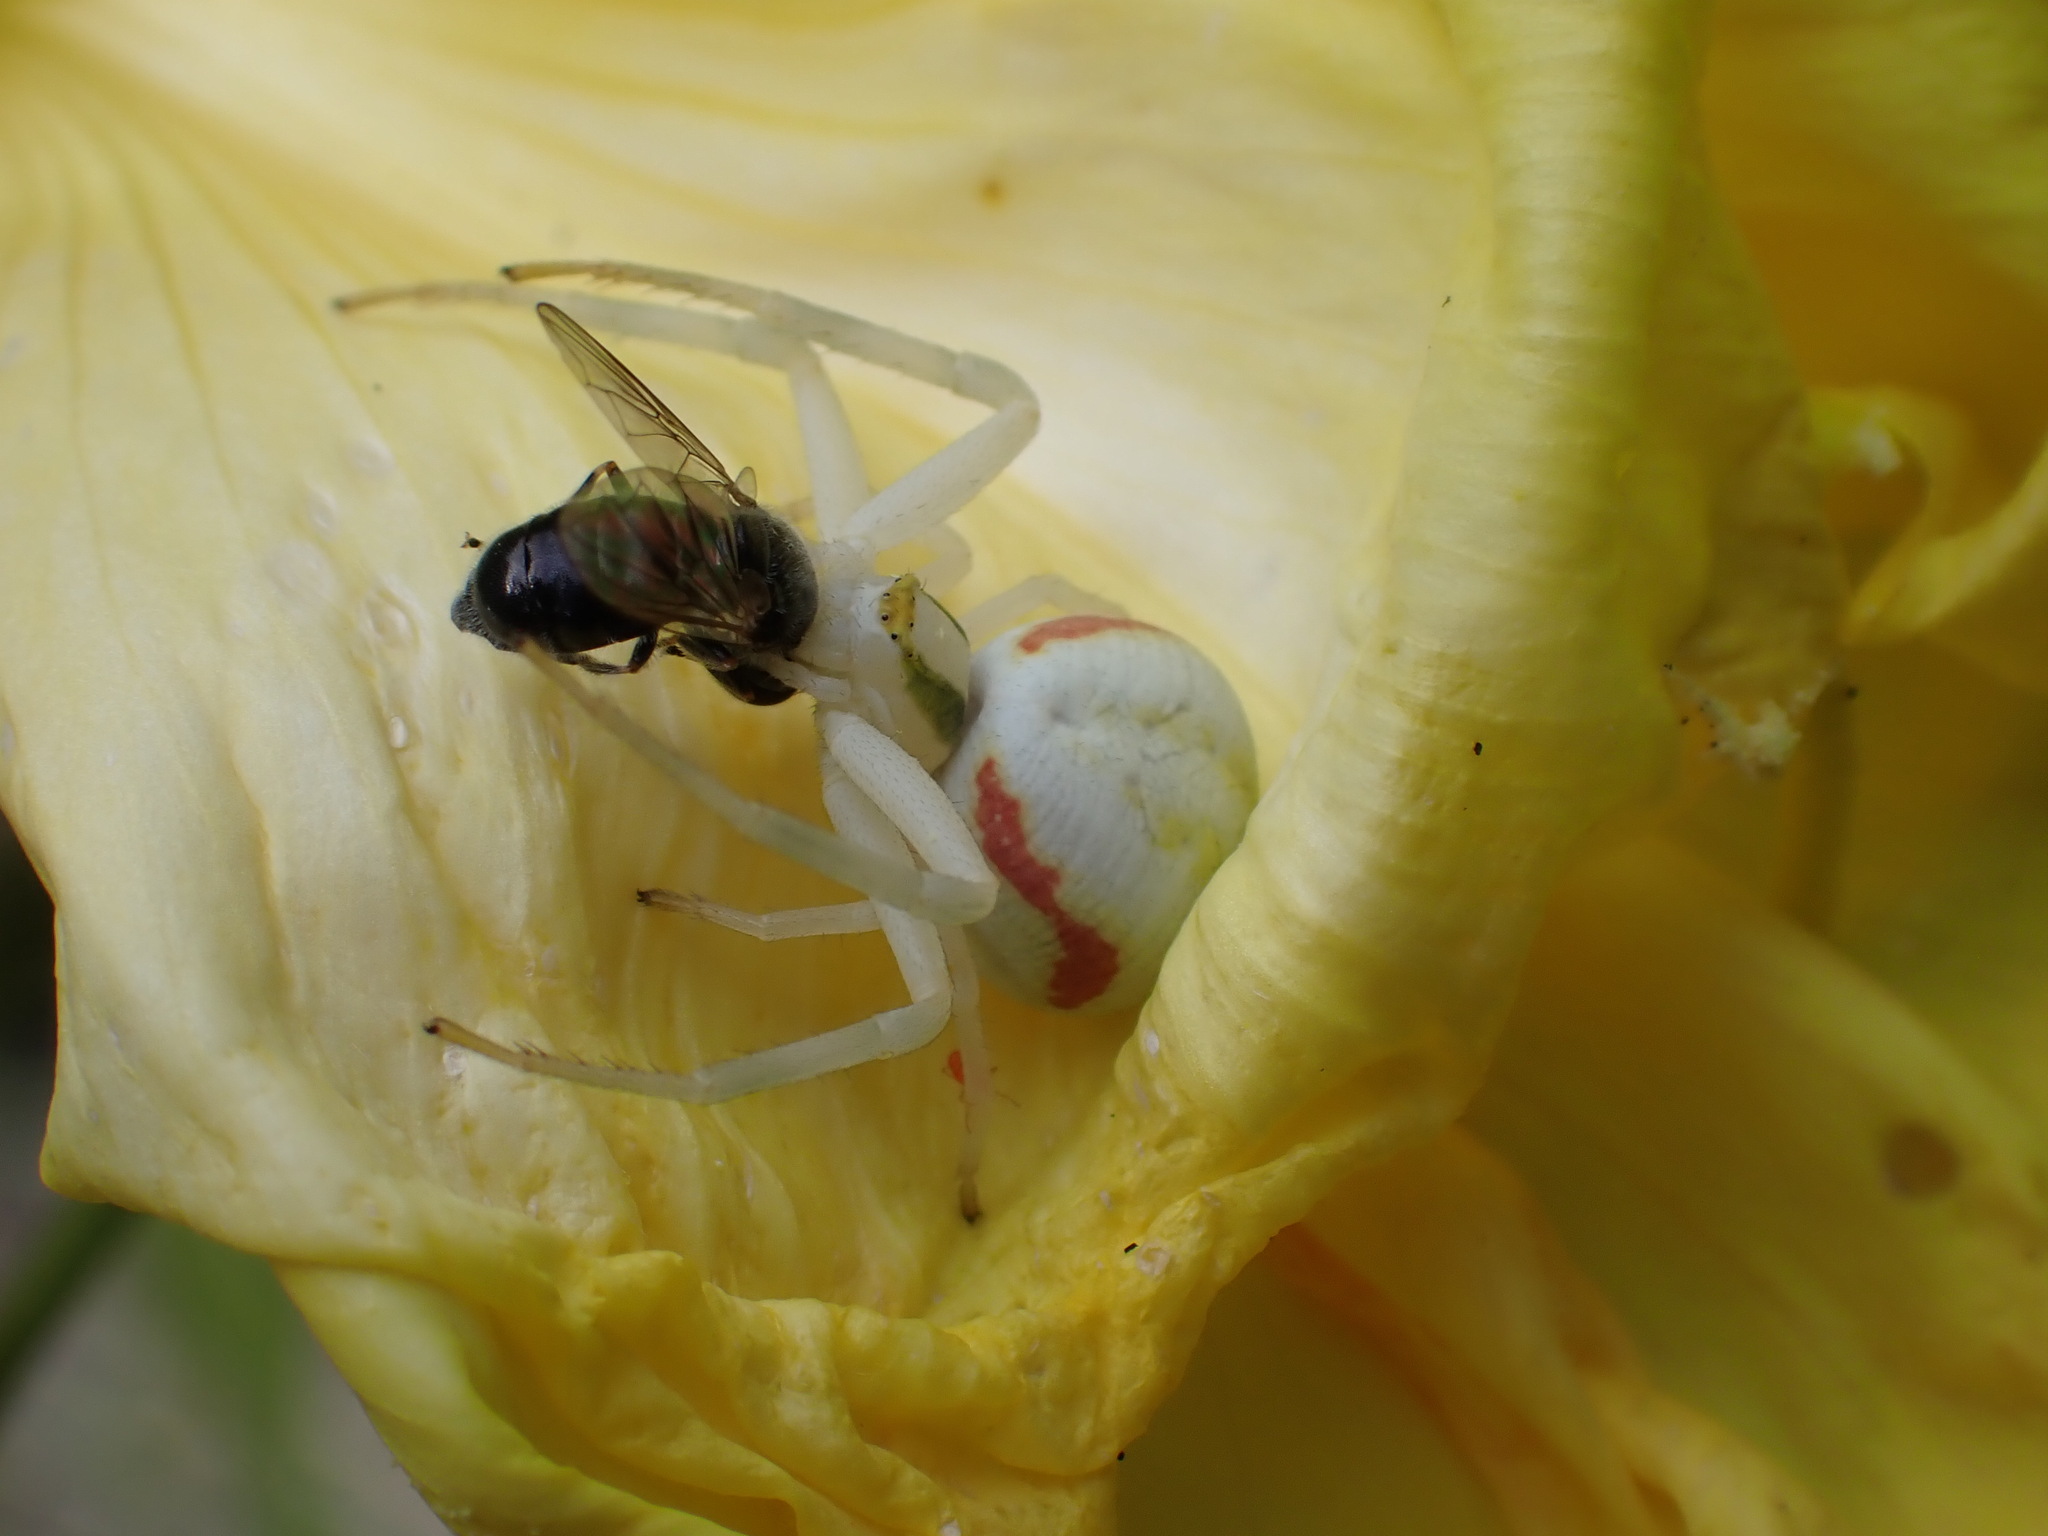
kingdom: Animalia
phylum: Arthropoda
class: Arachnida
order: Araneae
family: Thomisidae
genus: Misumena
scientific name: Misumena vatia
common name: Goldenrod crab spider
